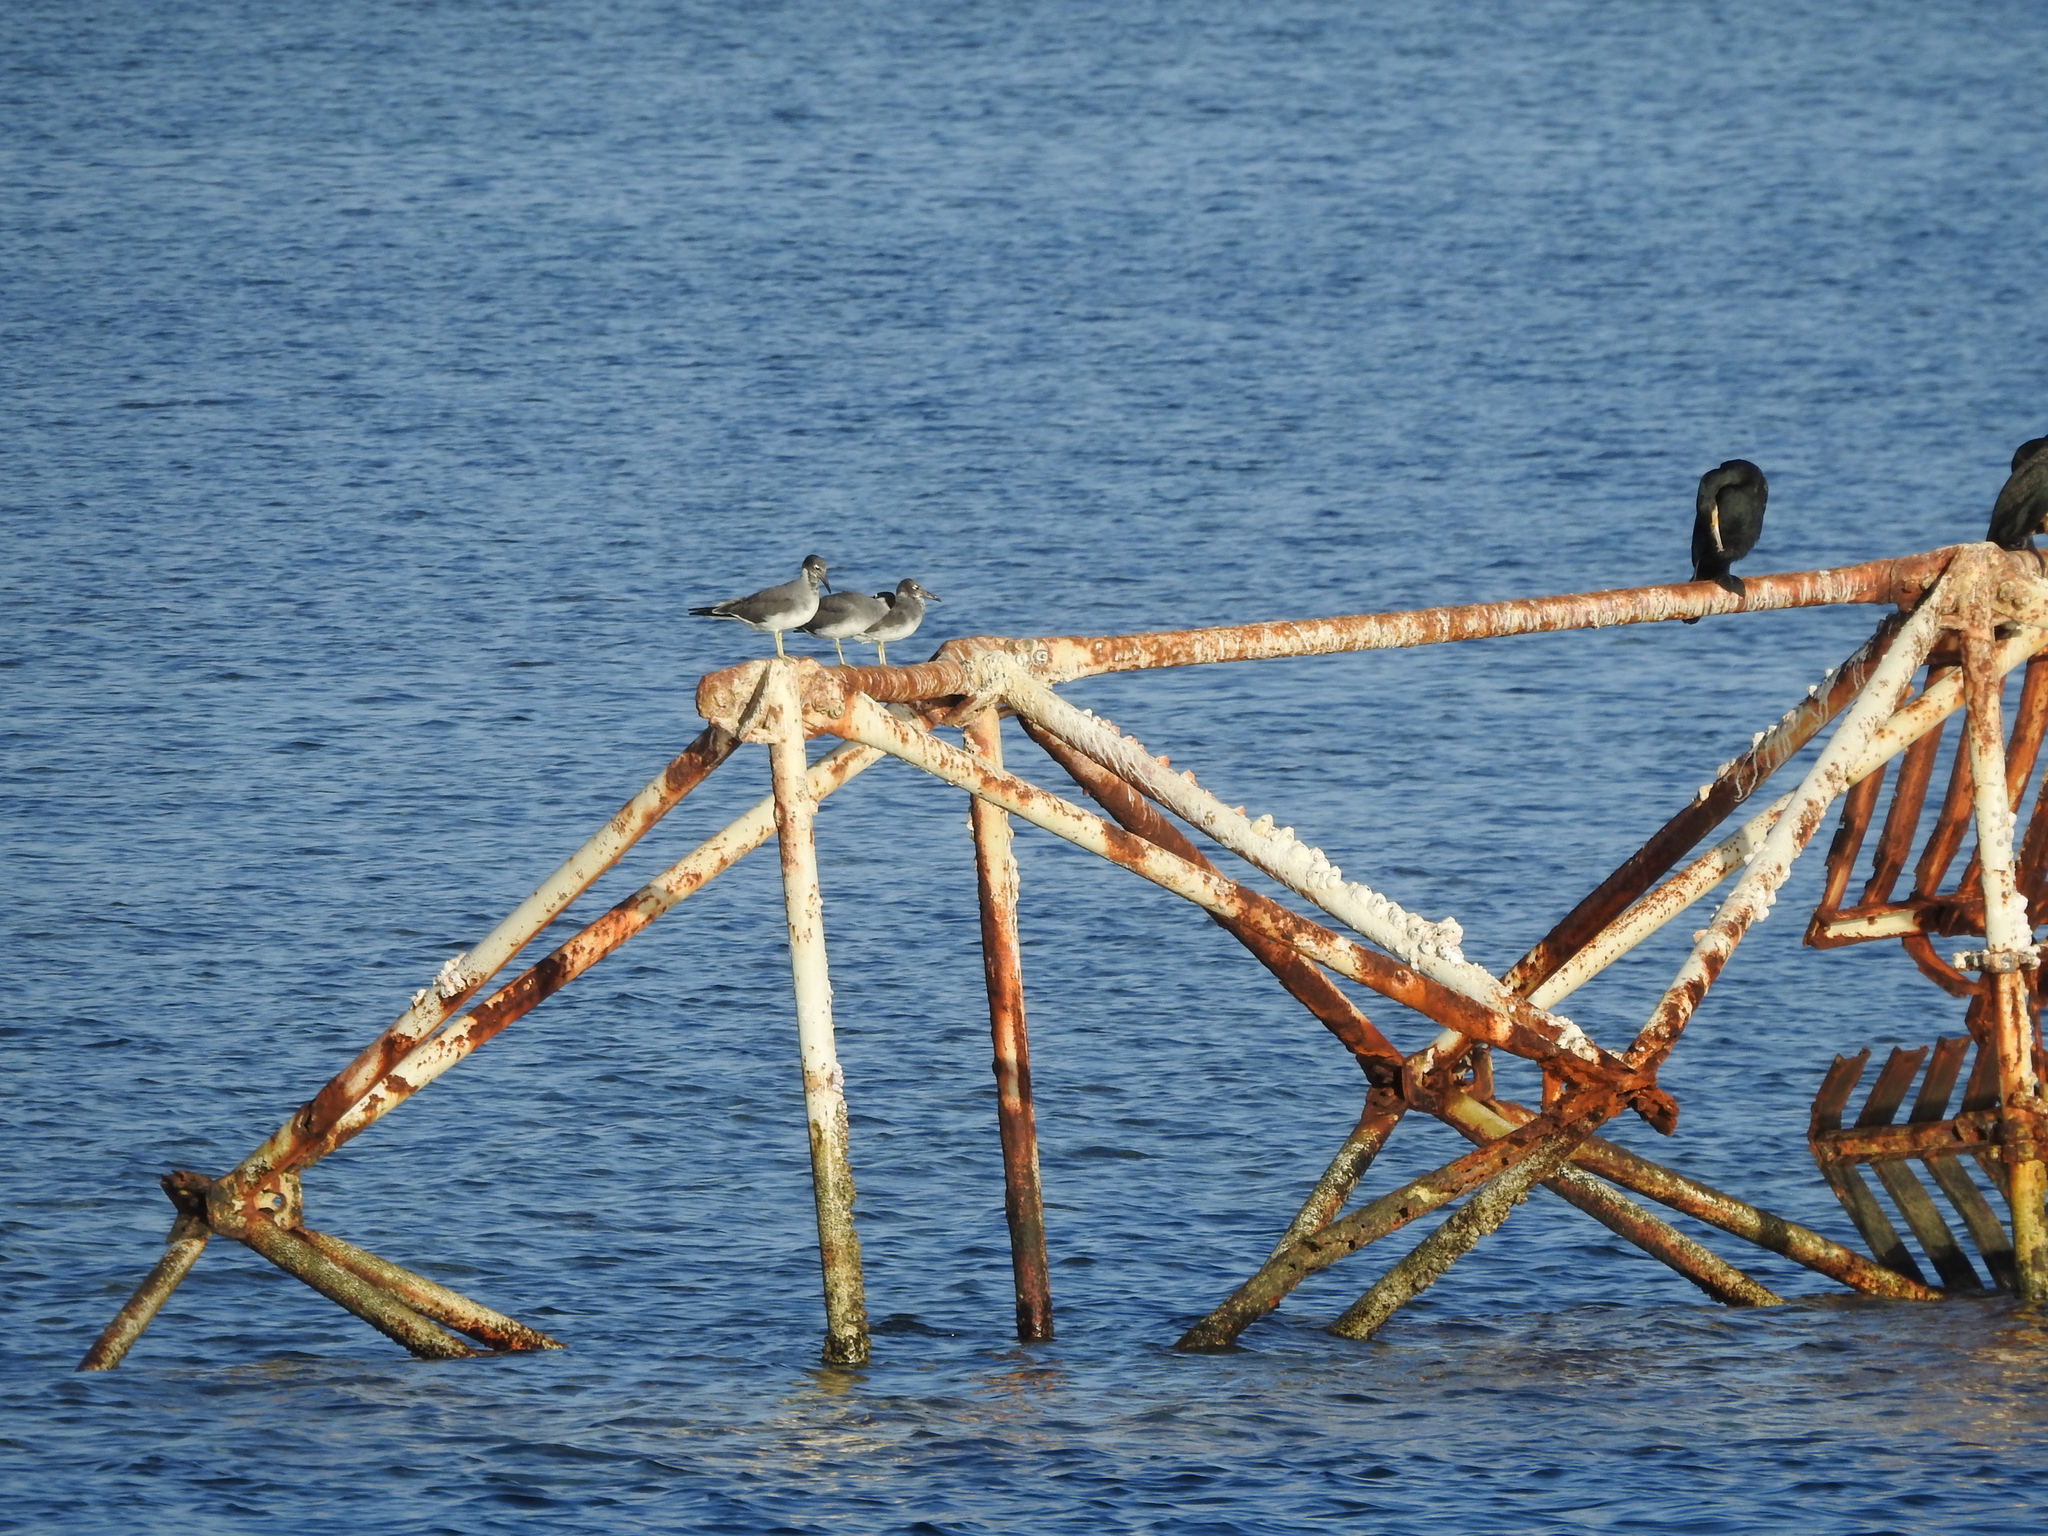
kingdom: Animalia
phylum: Chordata
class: Aves
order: Charadriiformes
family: Laridae
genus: Ichthyaetus
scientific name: Ichthyaetus leucophthalmus
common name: White-eyed gull
